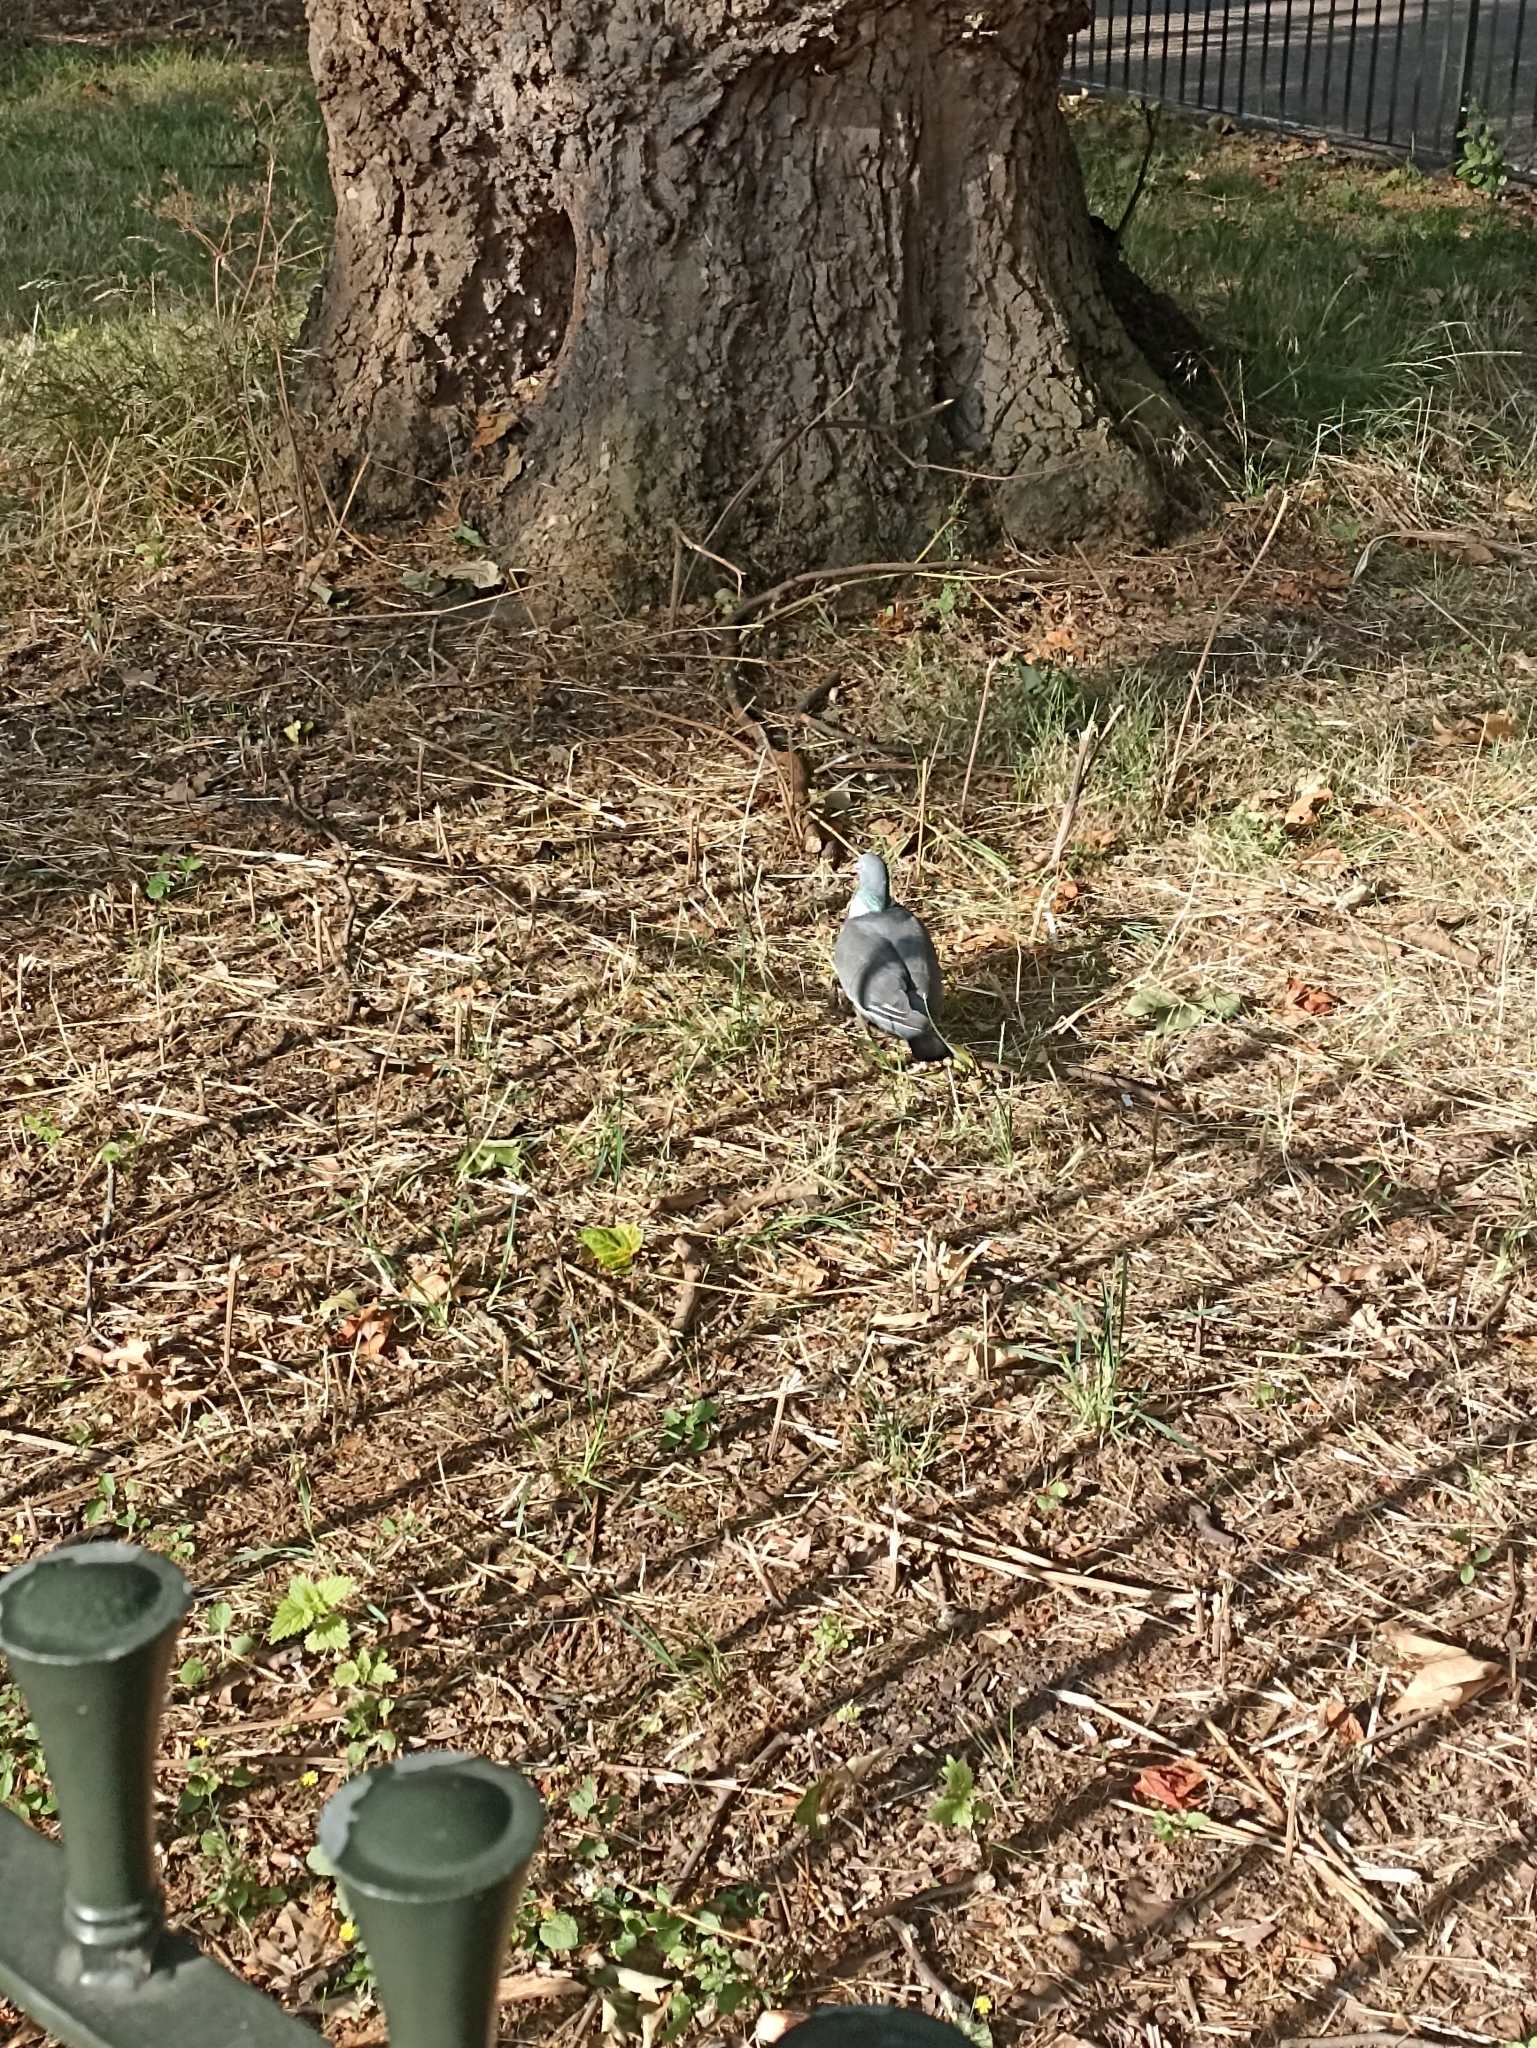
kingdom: Animalia
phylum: Chordata
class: Aves
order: Columbiformes
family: Columbidae
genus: Columba
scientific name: Columba palumbus
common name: Common wood pigeon
